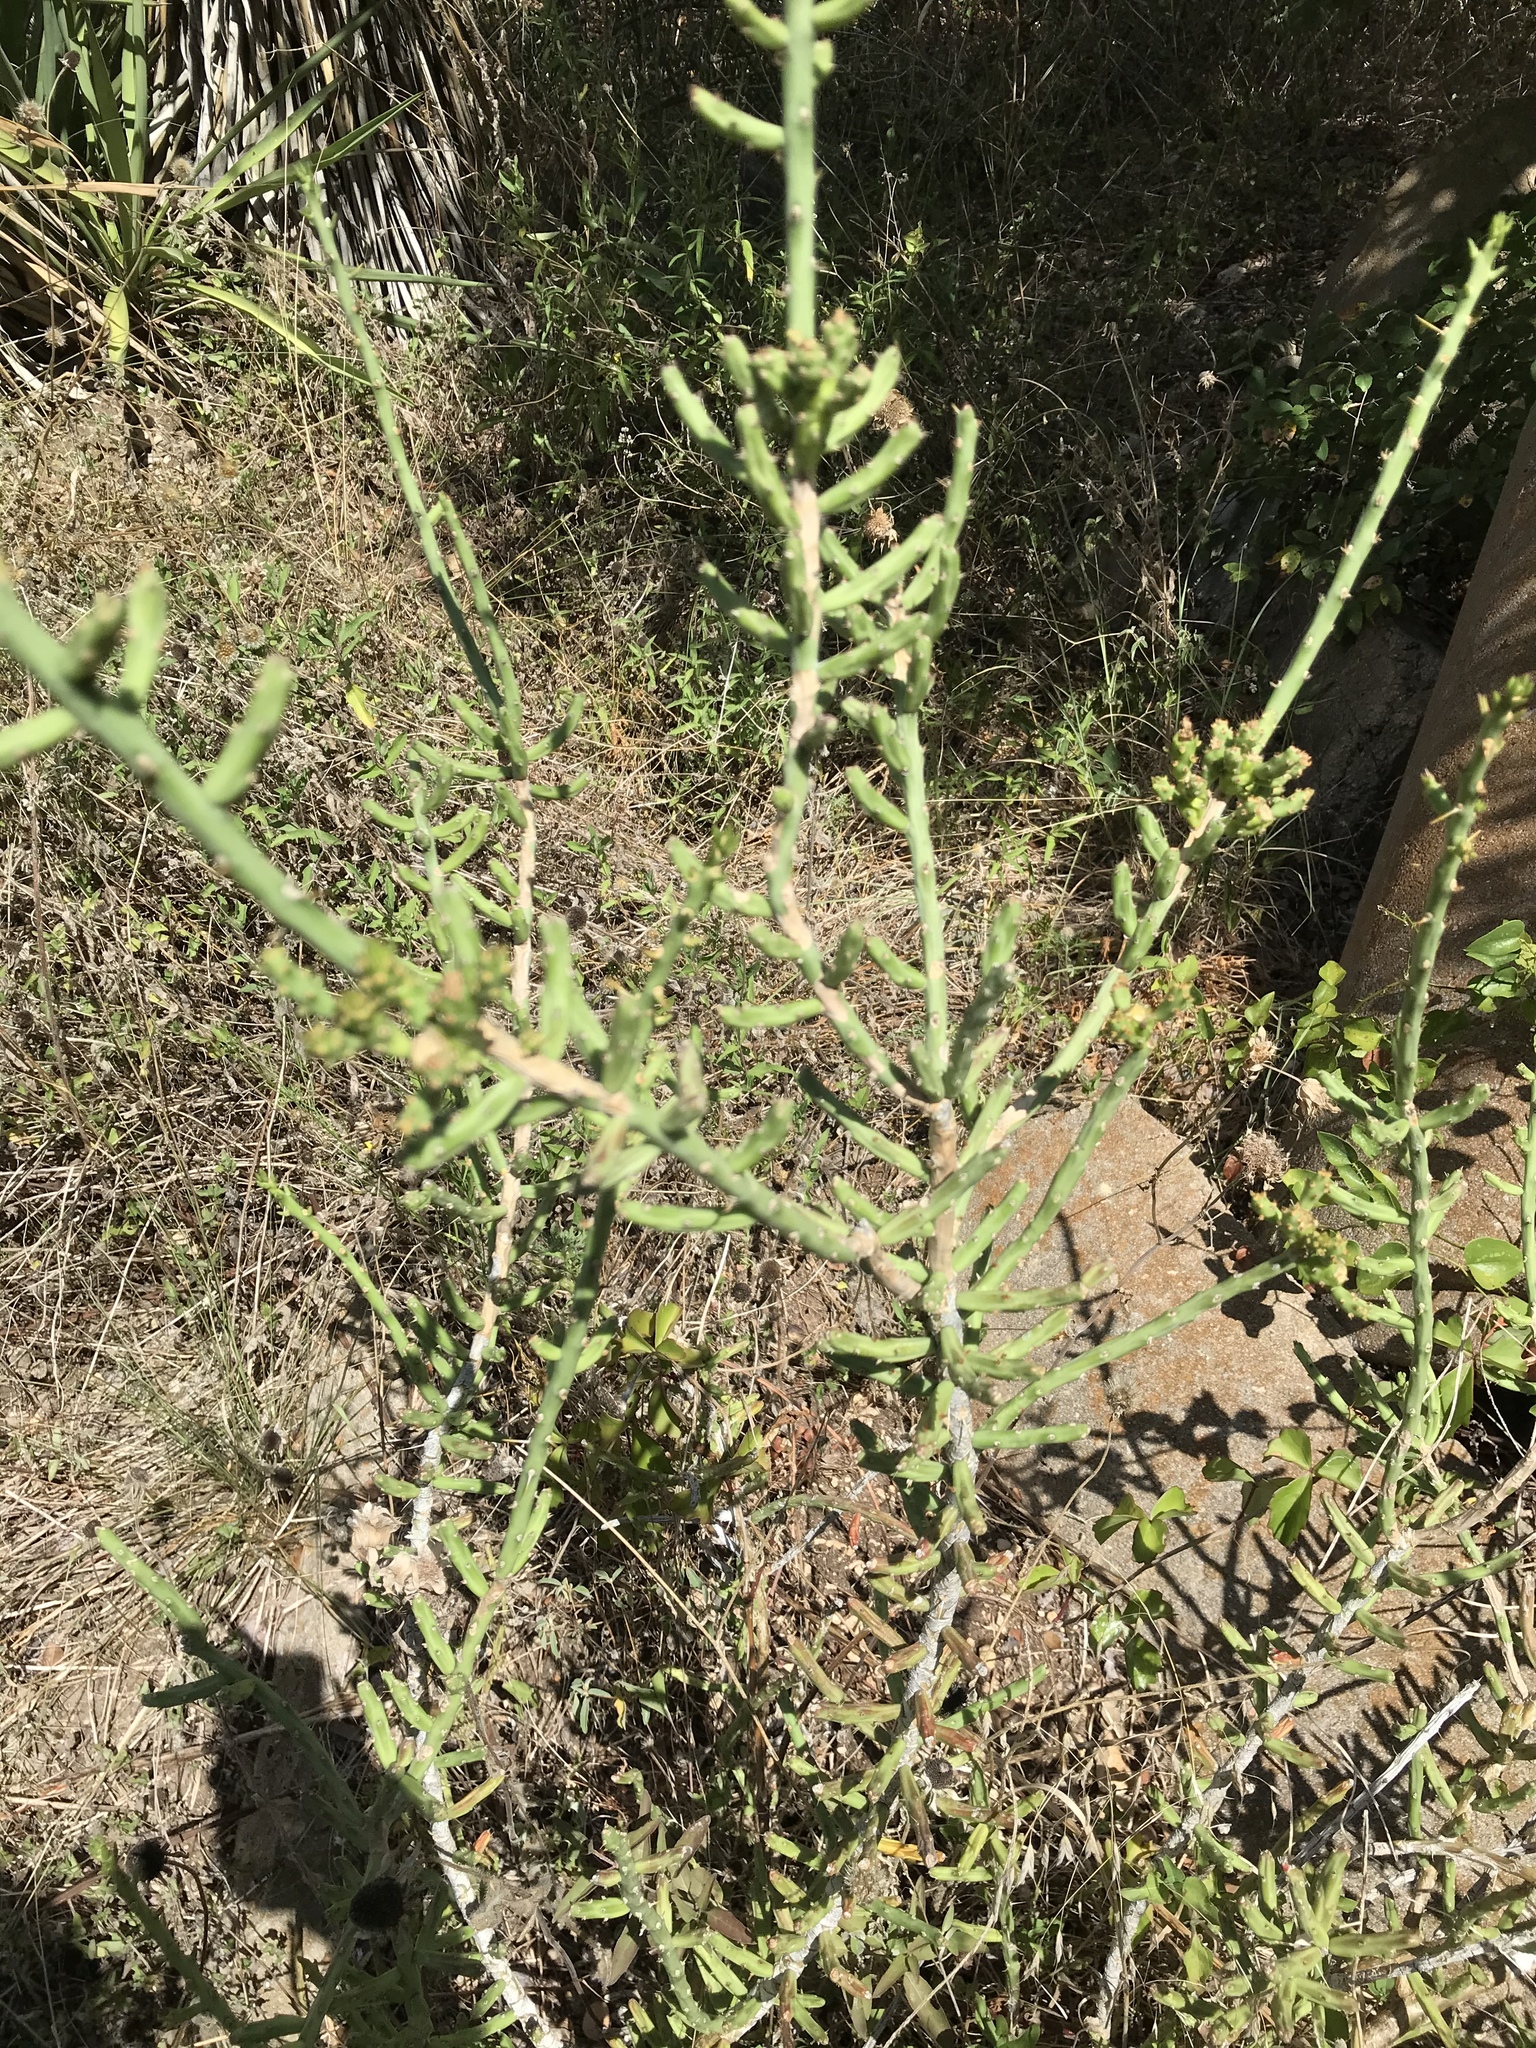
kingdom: Plantae
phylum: Tracheophyta
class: Magnoliopsida
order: Caryophyllales
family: Cactaceae
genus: Cylindropuntia
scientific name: Cylindropuntia leptocaulis
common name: Christmas cactus
